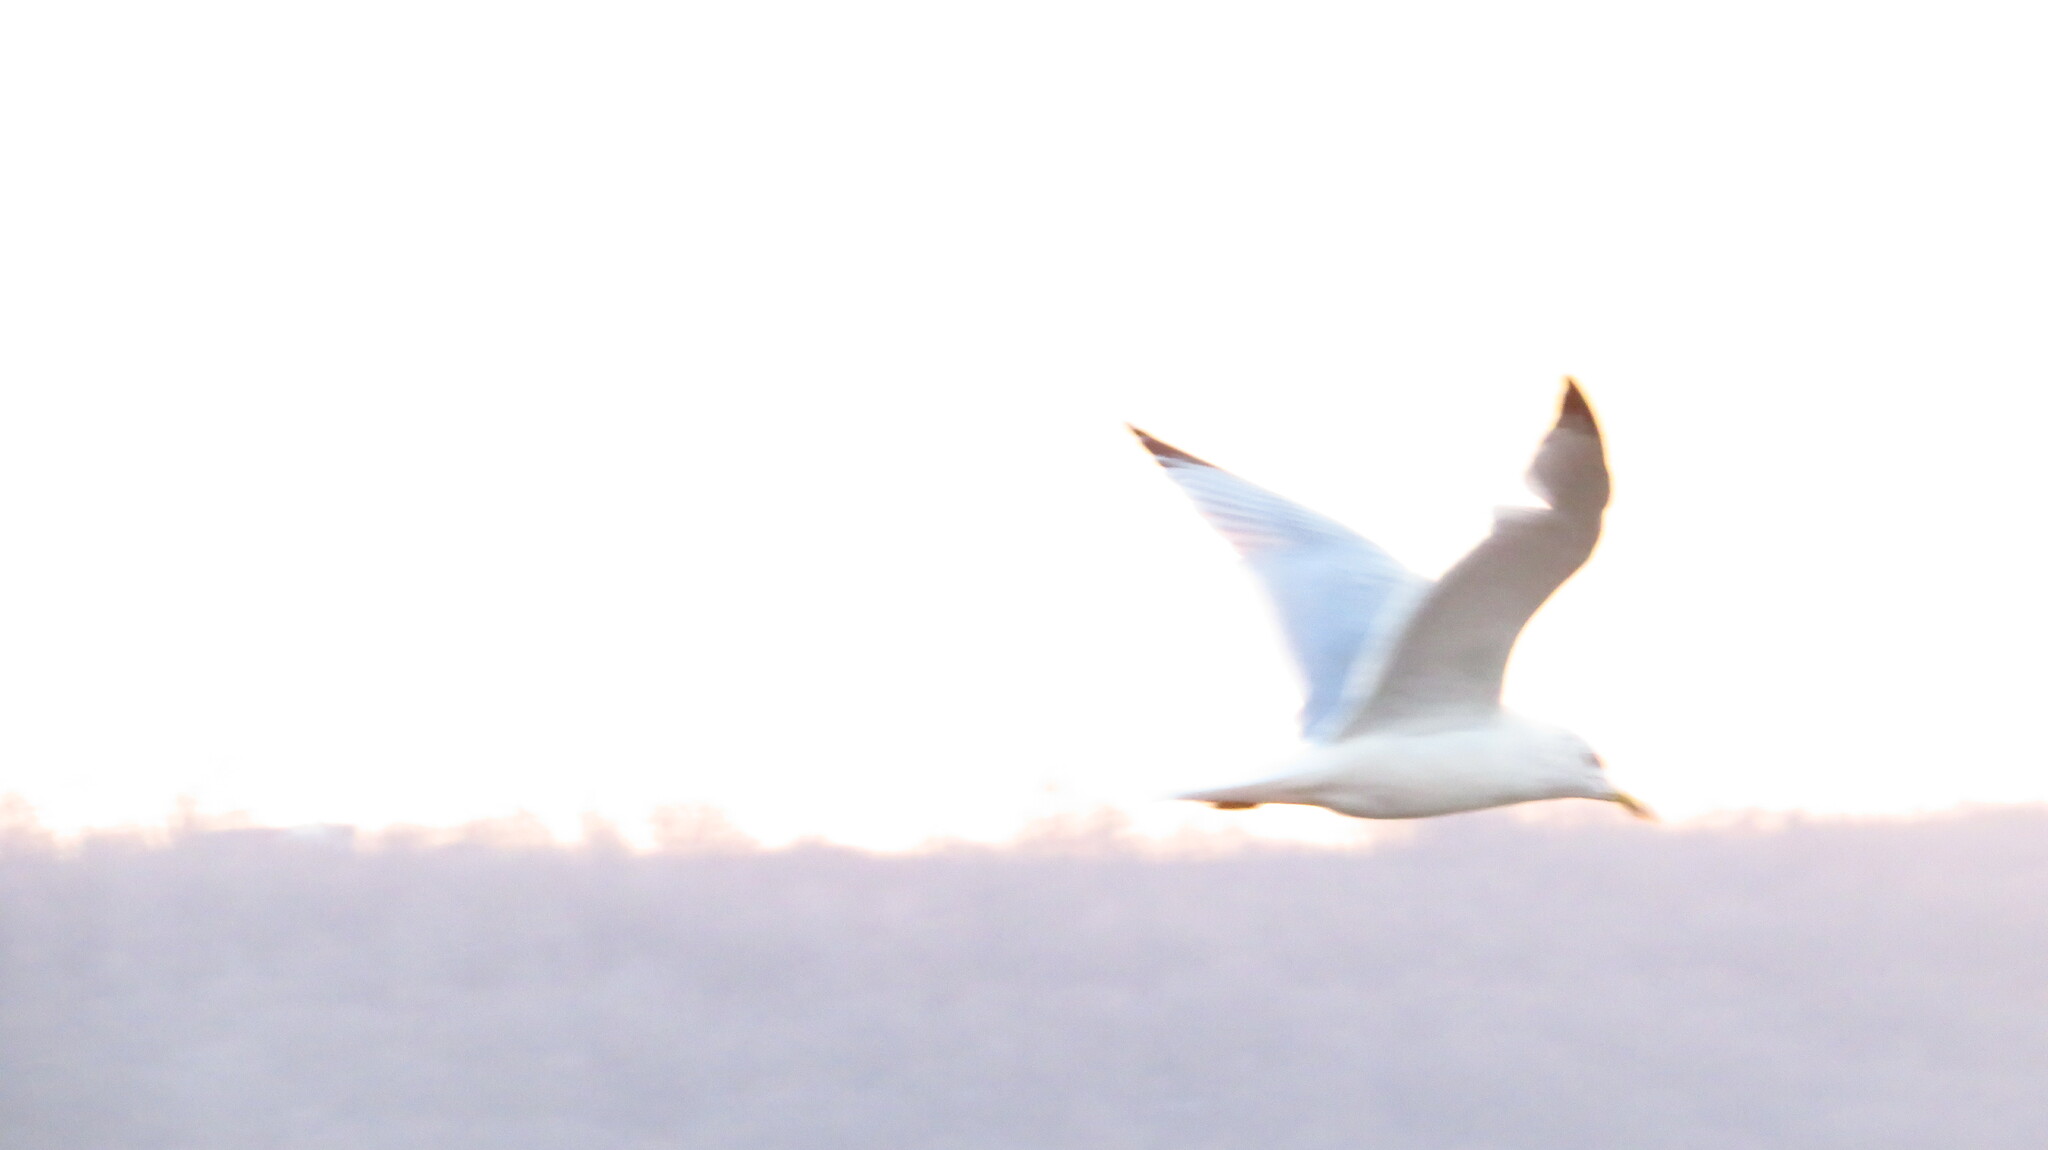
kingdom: Animalia
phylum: Chordata
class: Aves
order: Charadriiformes
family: Laridae
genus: Larus
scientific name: Larus argentatus
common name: Herring gull
